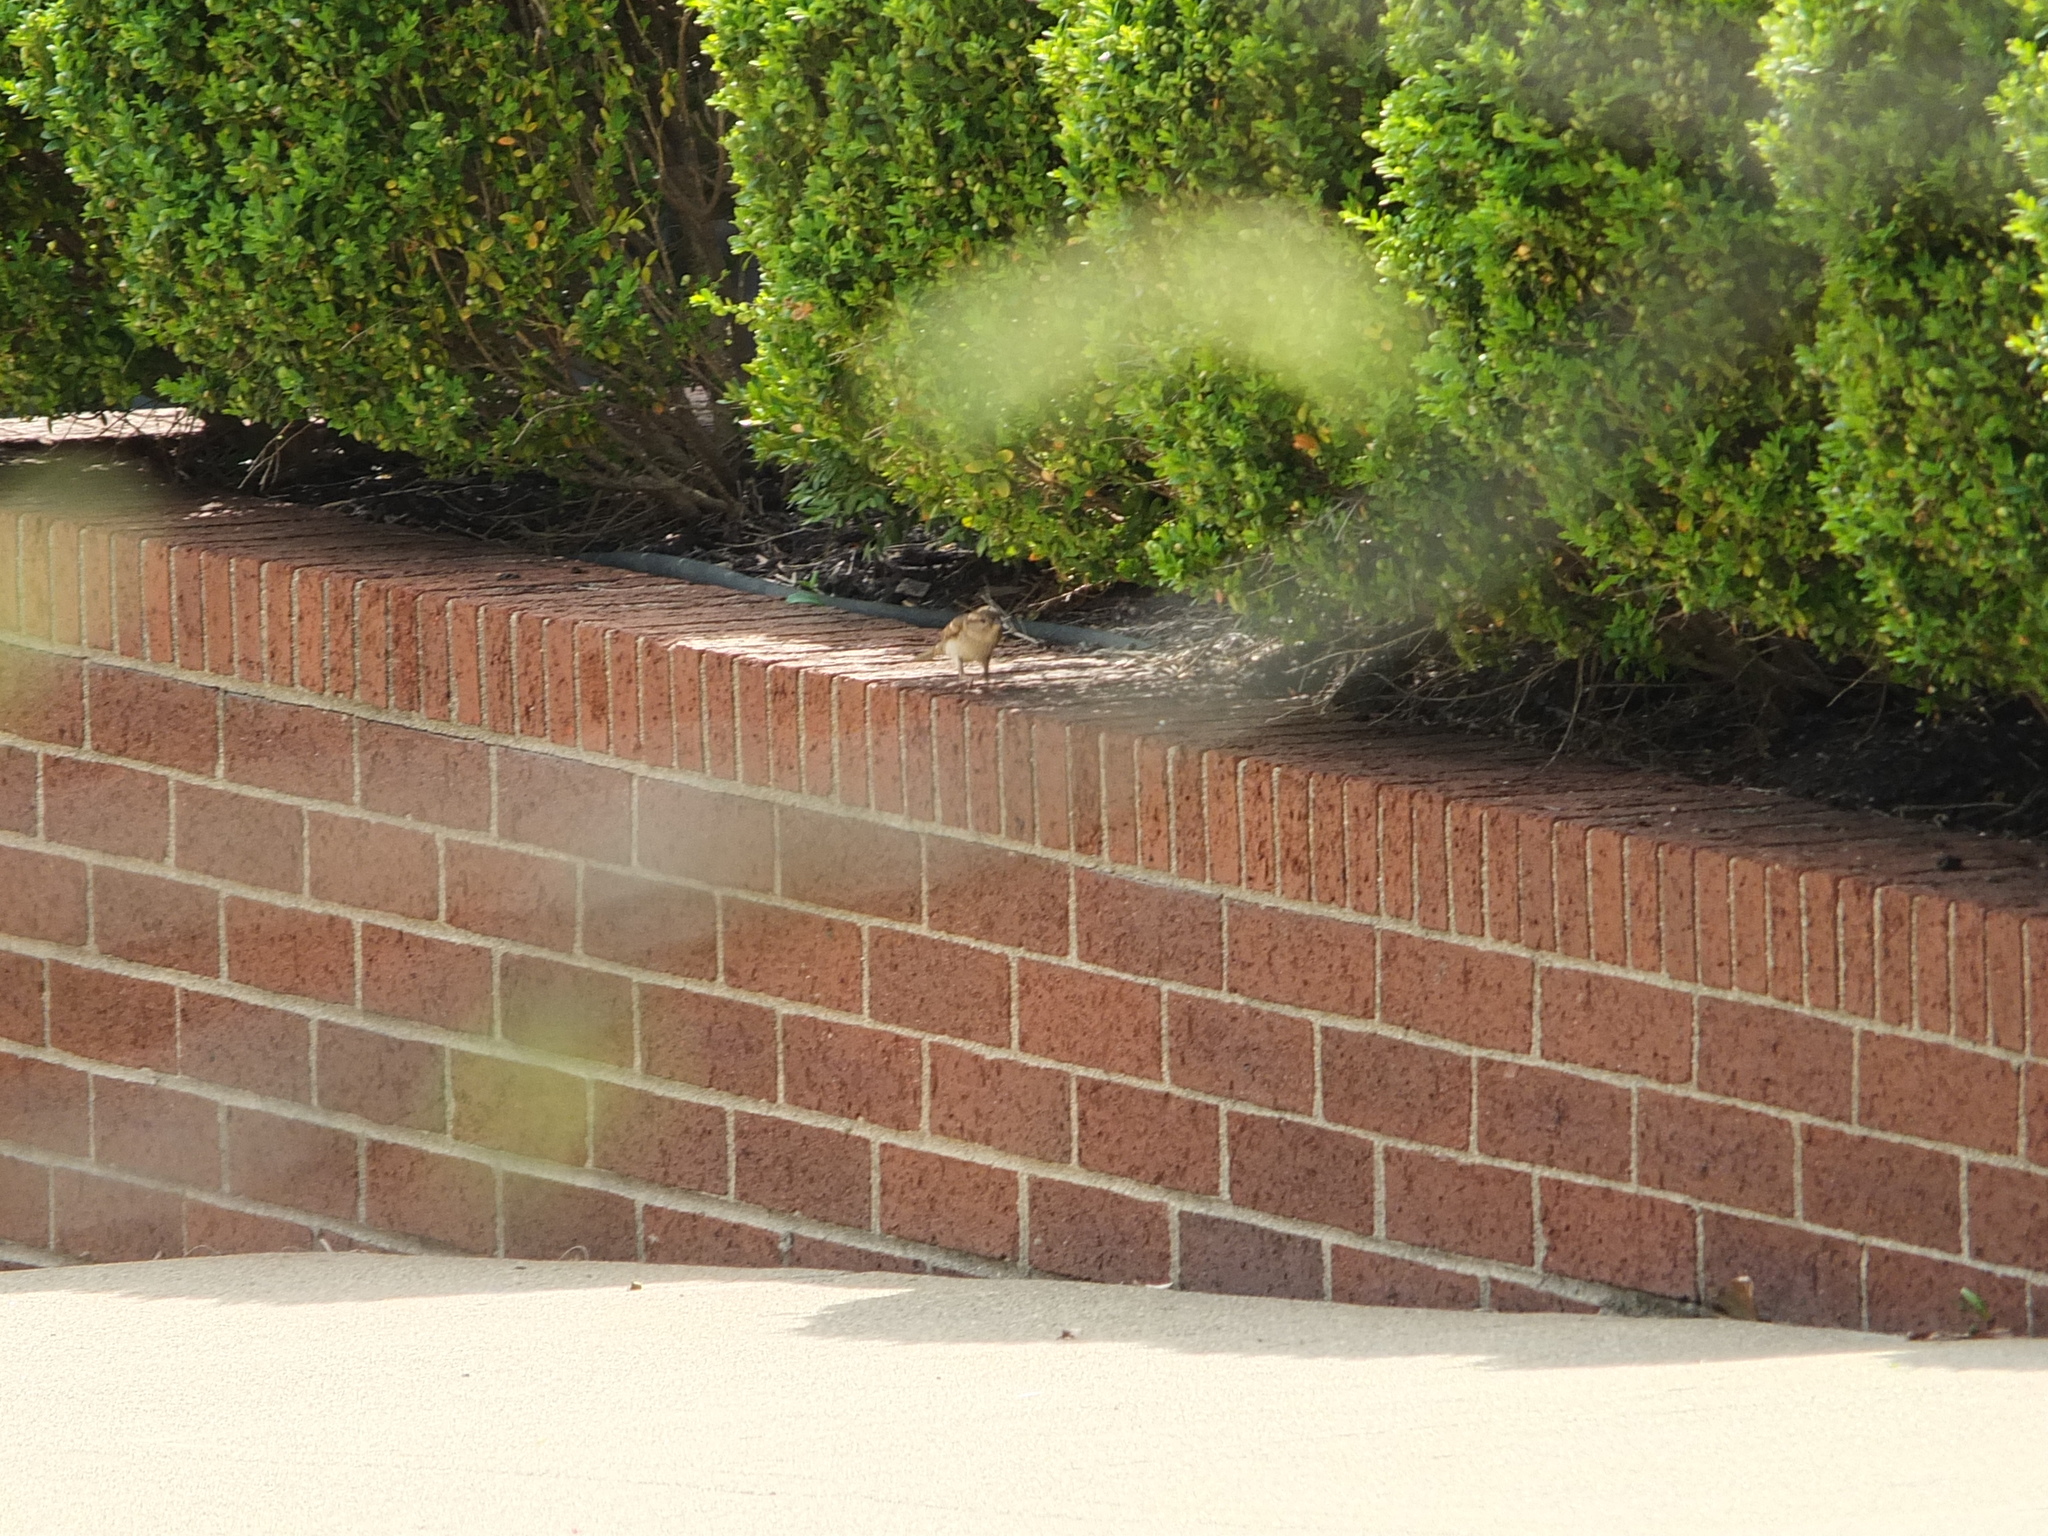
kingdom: Animalia
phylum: Chordata
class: Aves
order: Passeriformes
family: Passeridae
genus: Passer
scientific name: Passer domesticus
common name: House sparrow
